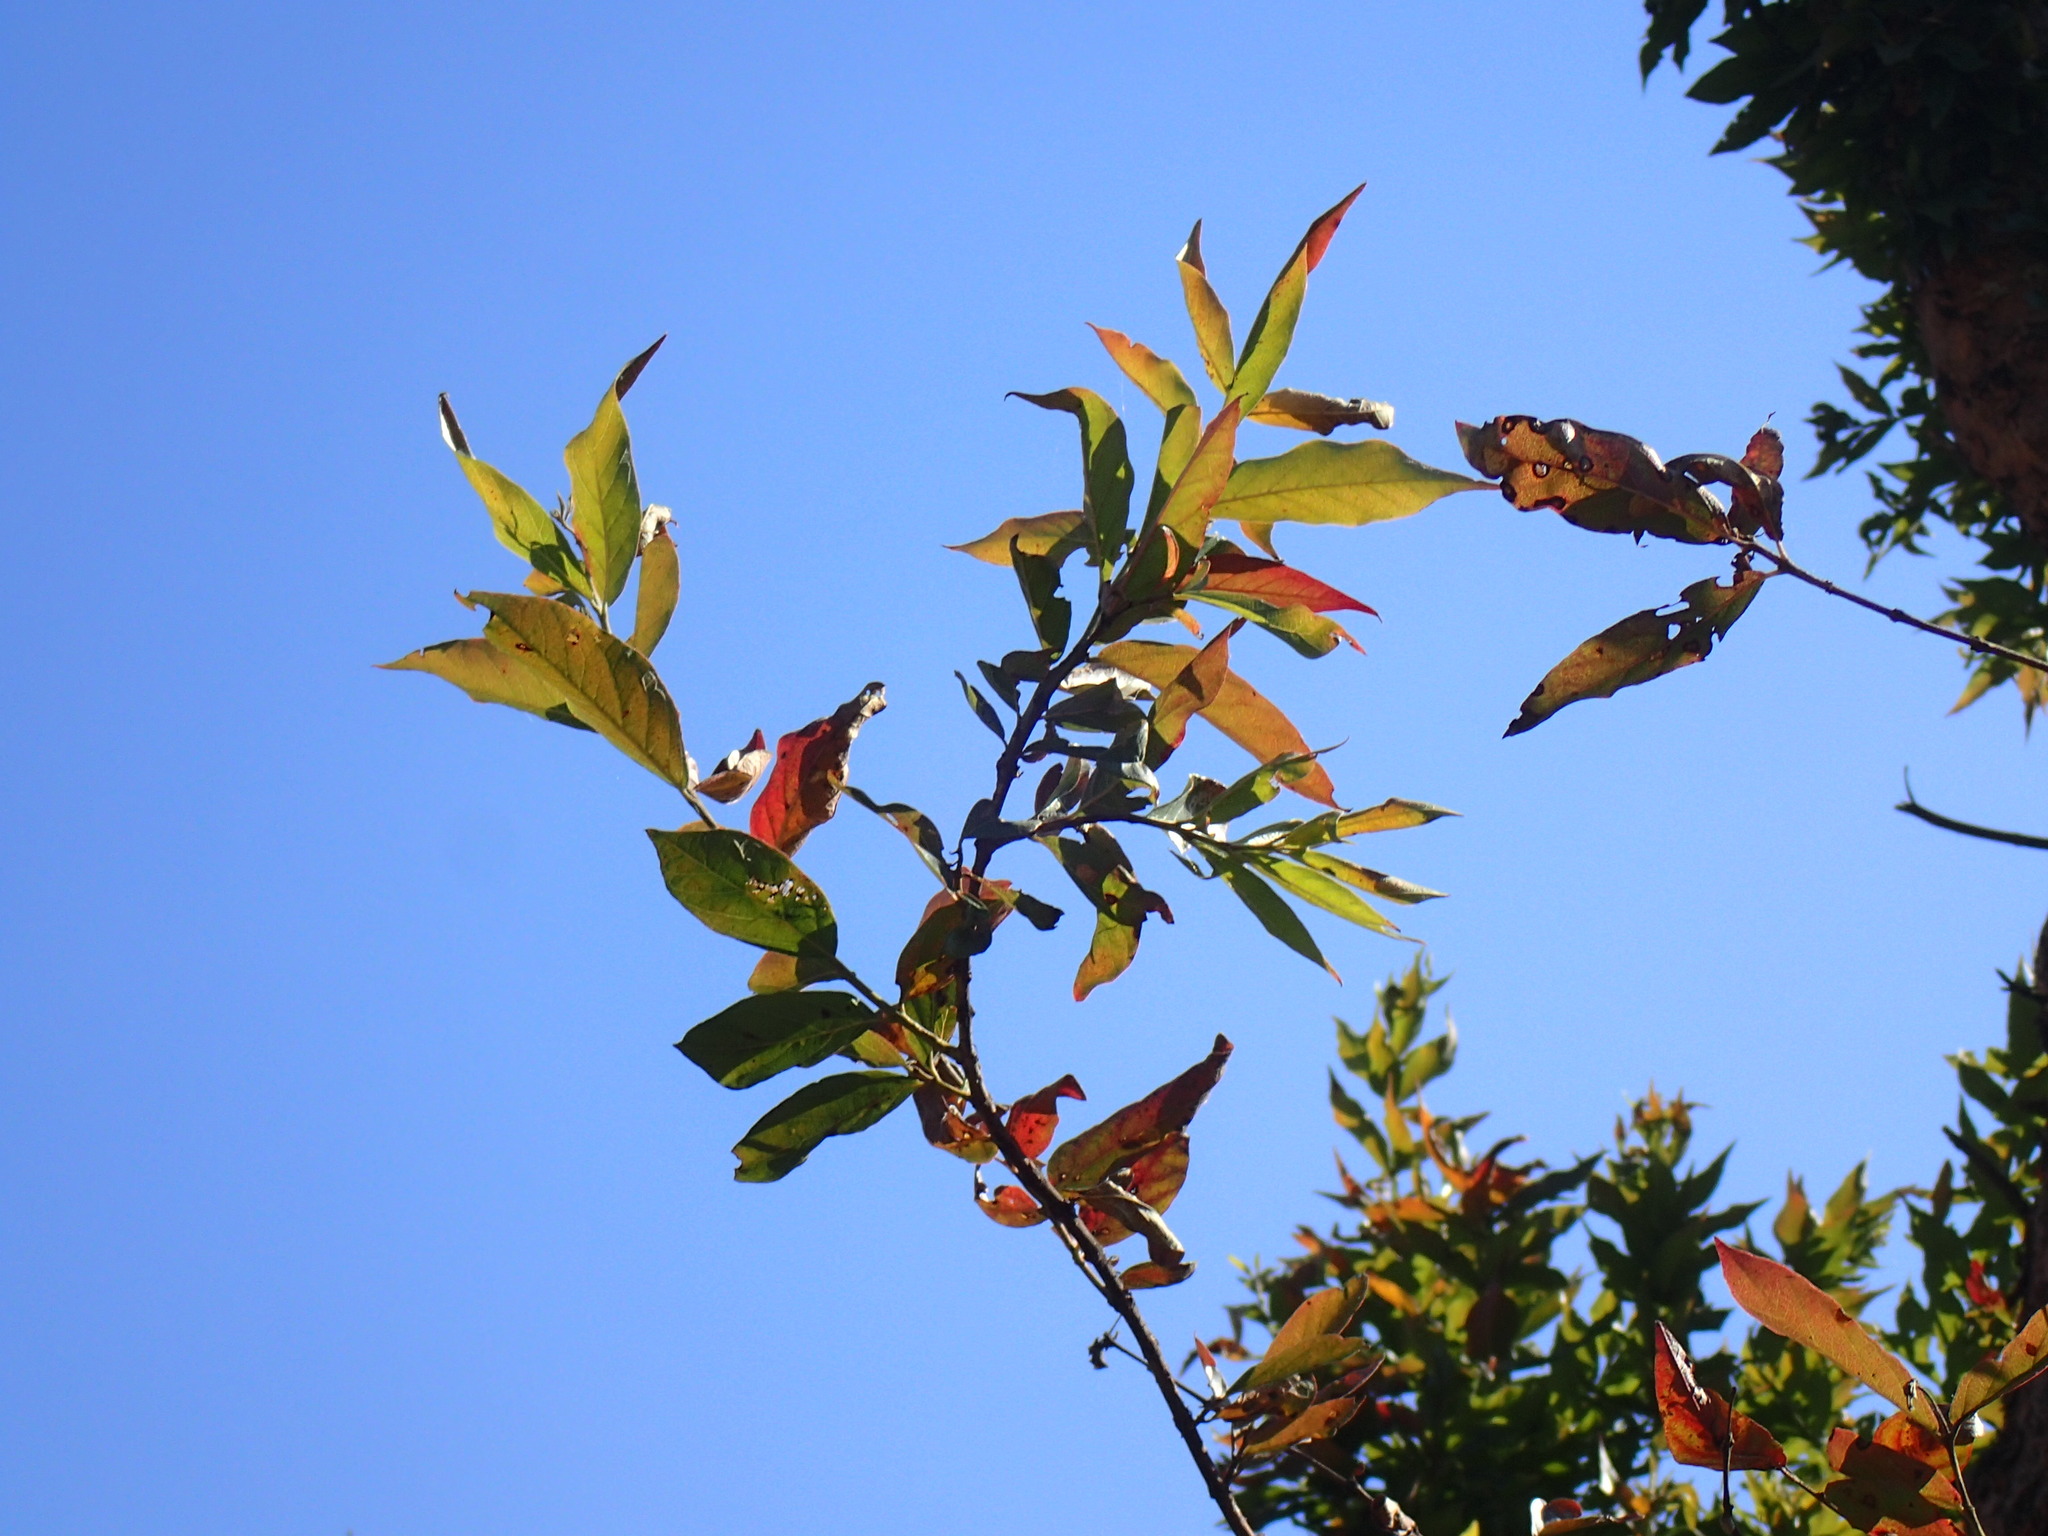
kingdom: Plantae
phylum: Tracheophyta
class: Magnoliopsida
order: Myrtales
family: Combretaceae
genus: Combretum
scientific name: Combretum erythrophyllum
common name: Bush-willow
